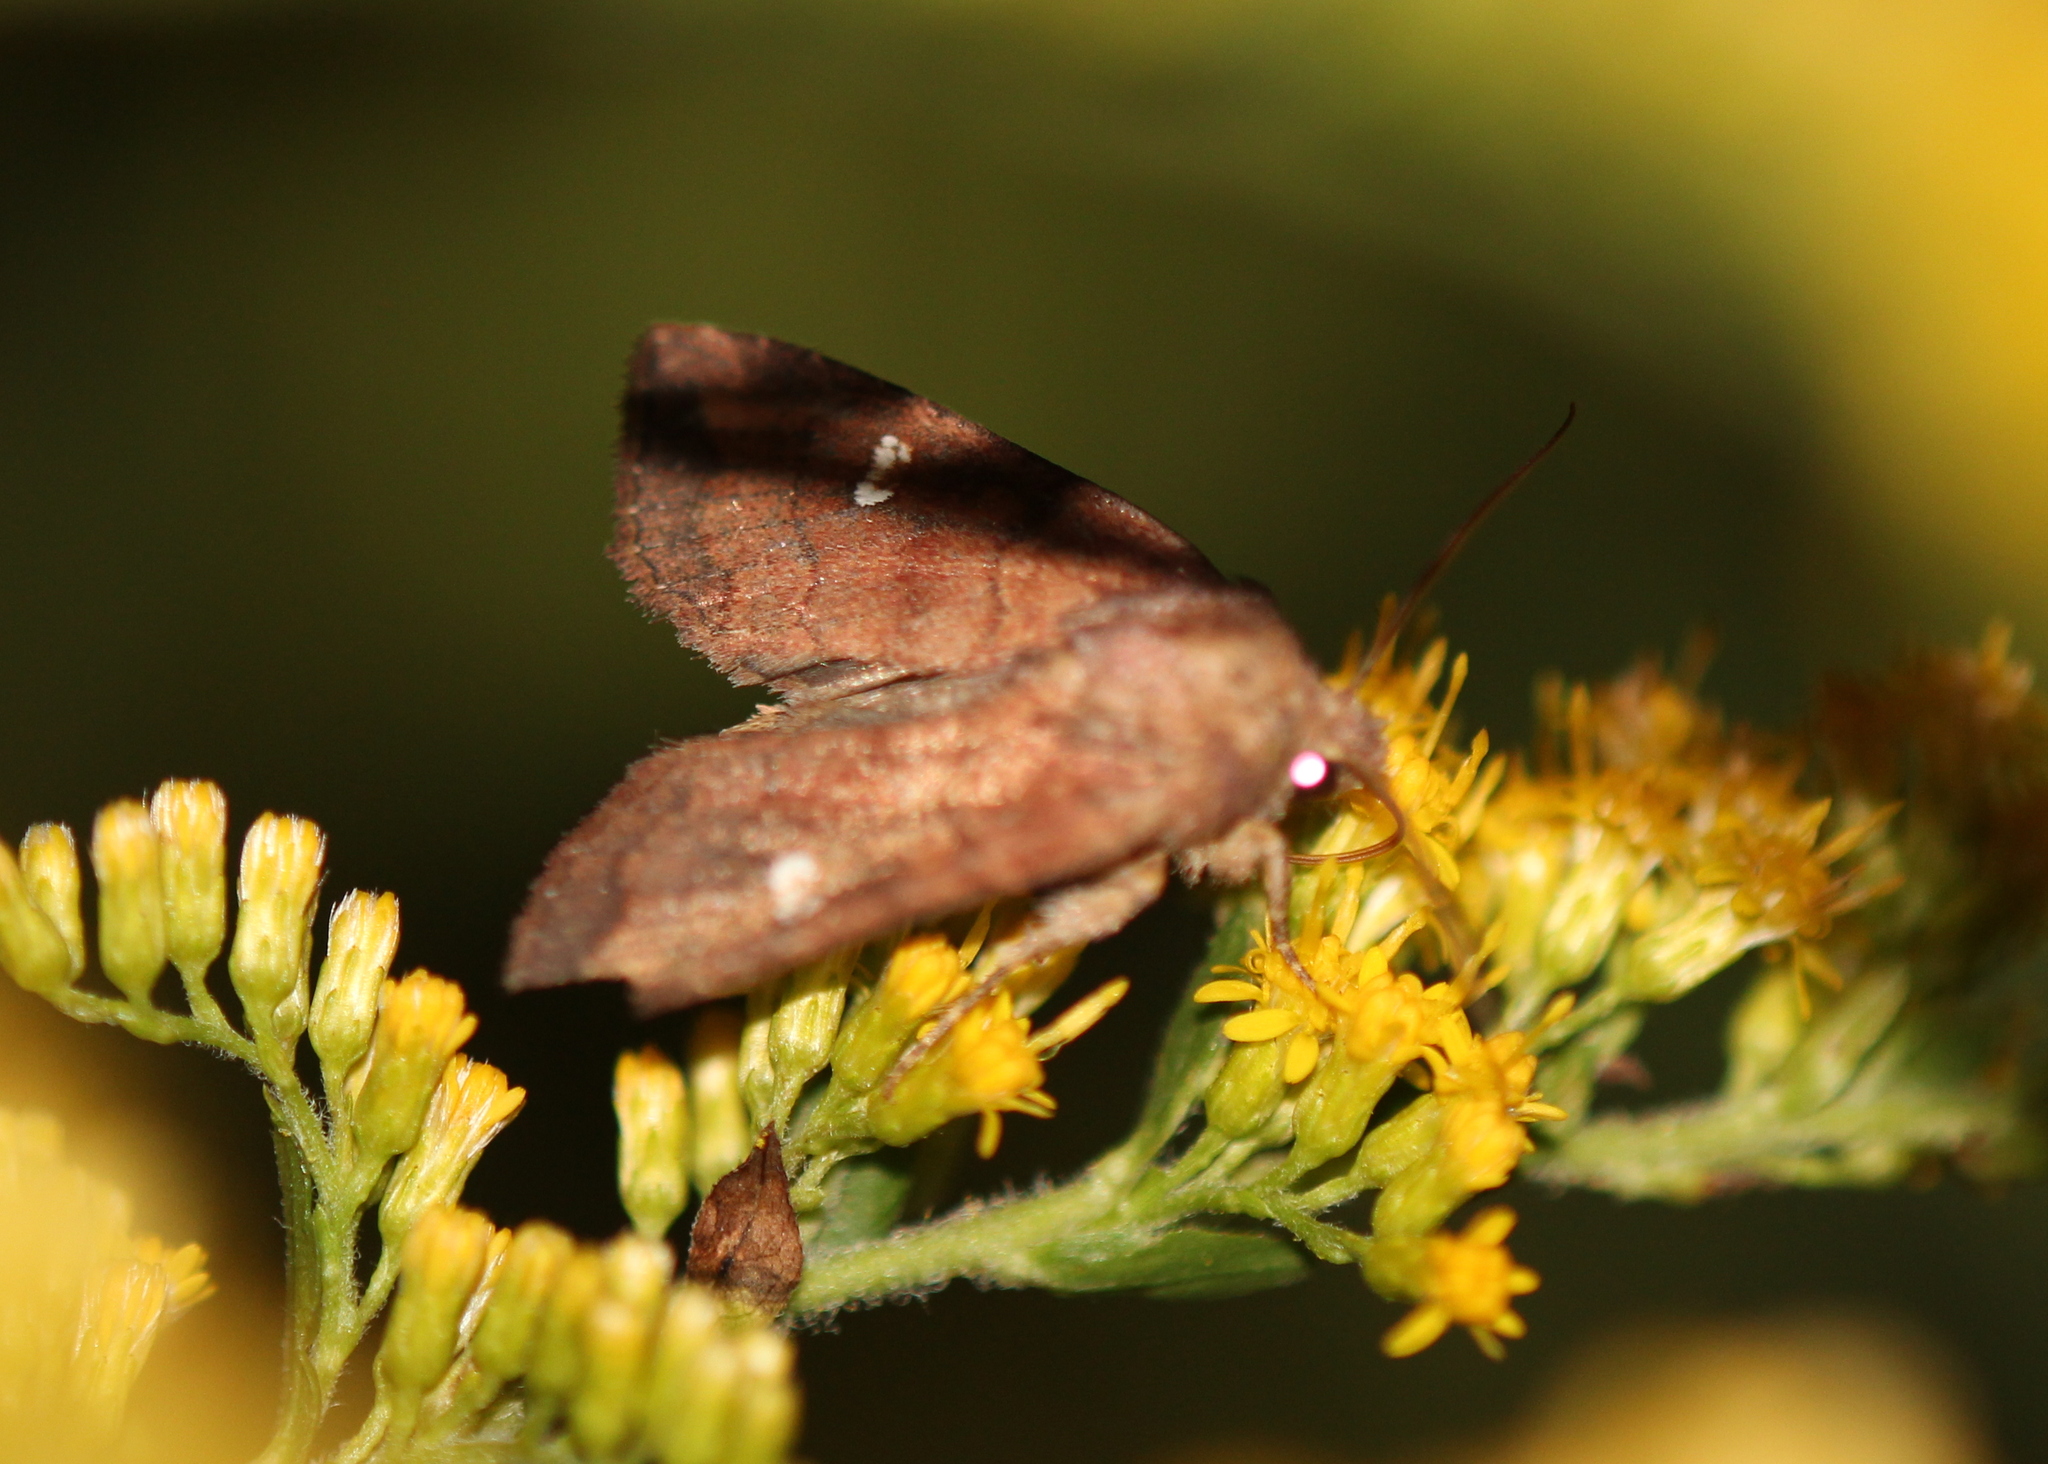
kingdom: Animalia
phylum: Arthropoda
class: Insecta
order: Lepidoptera
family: Noctuidae
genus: Tricholita
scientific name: Tricholita signata
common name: Signate quaker
